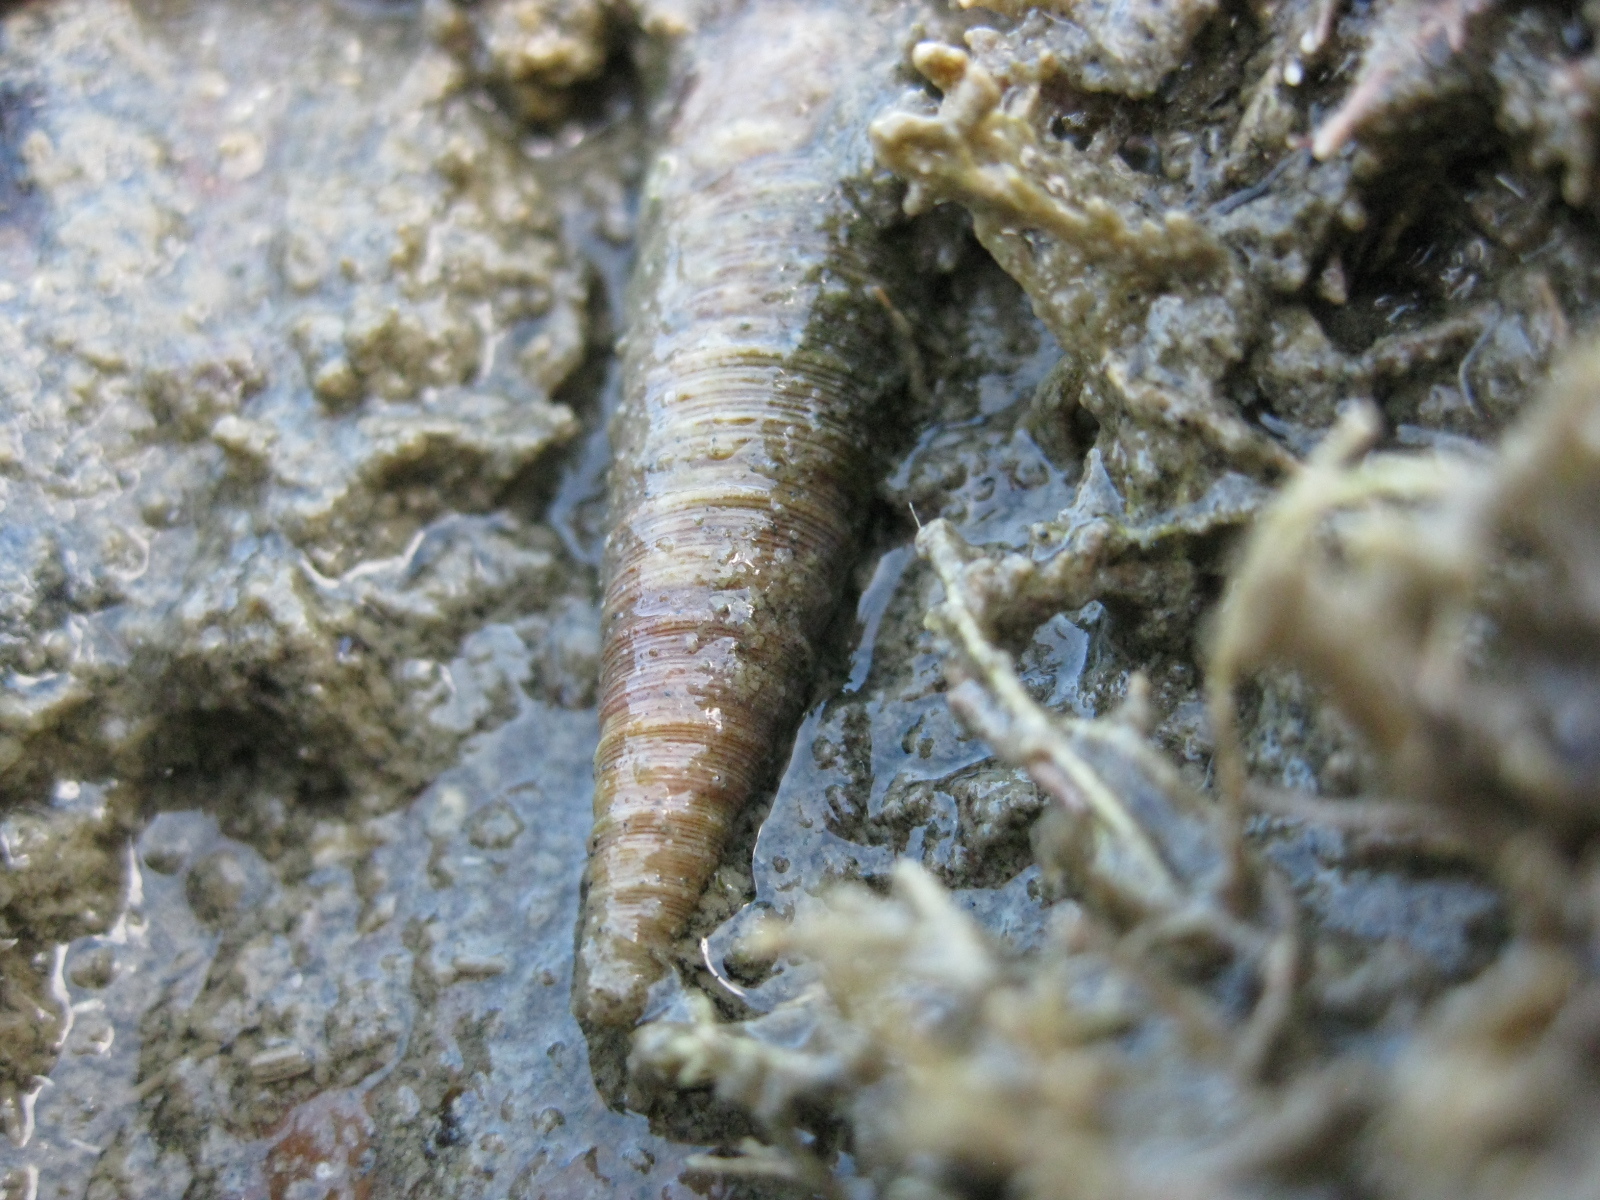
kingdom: Animalia
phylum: Mollusca
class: Gastropoda
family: Turritellidae
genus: Maoricolpus
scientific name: Maoricolpus roseus
